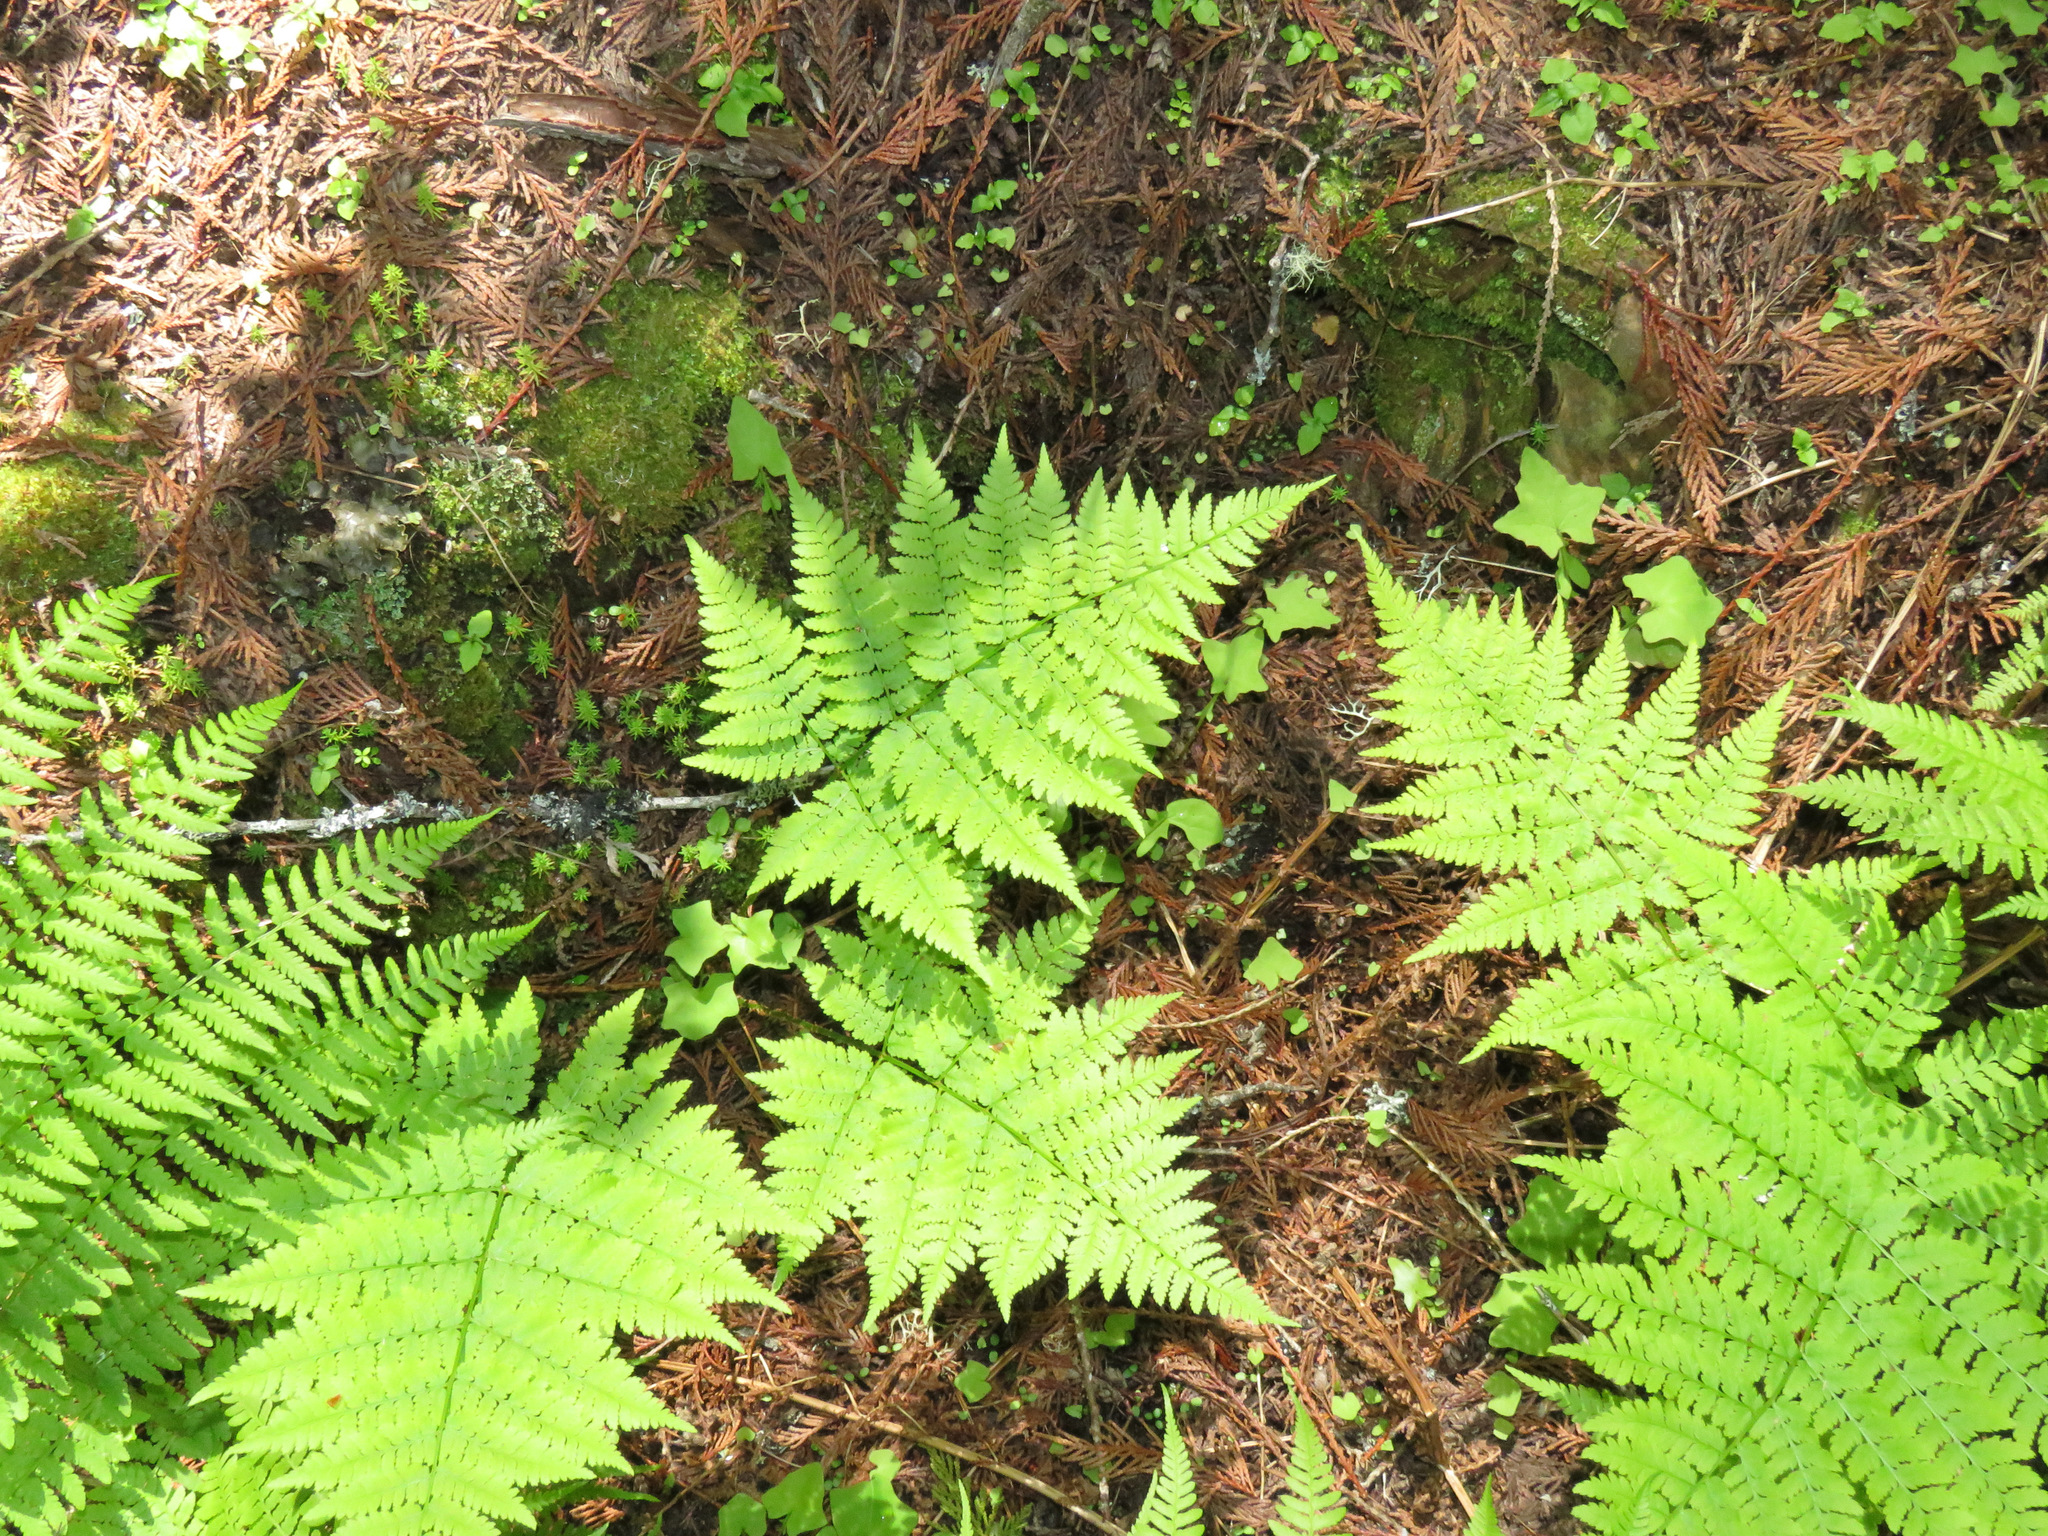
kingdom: Plantae
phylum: Tracheophyta
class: Polypodiopsida
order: Polypodiales
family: Dryopteridaceae
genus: Dryopteris
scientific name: Dryopteris expansa
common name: Northern buckler fern
